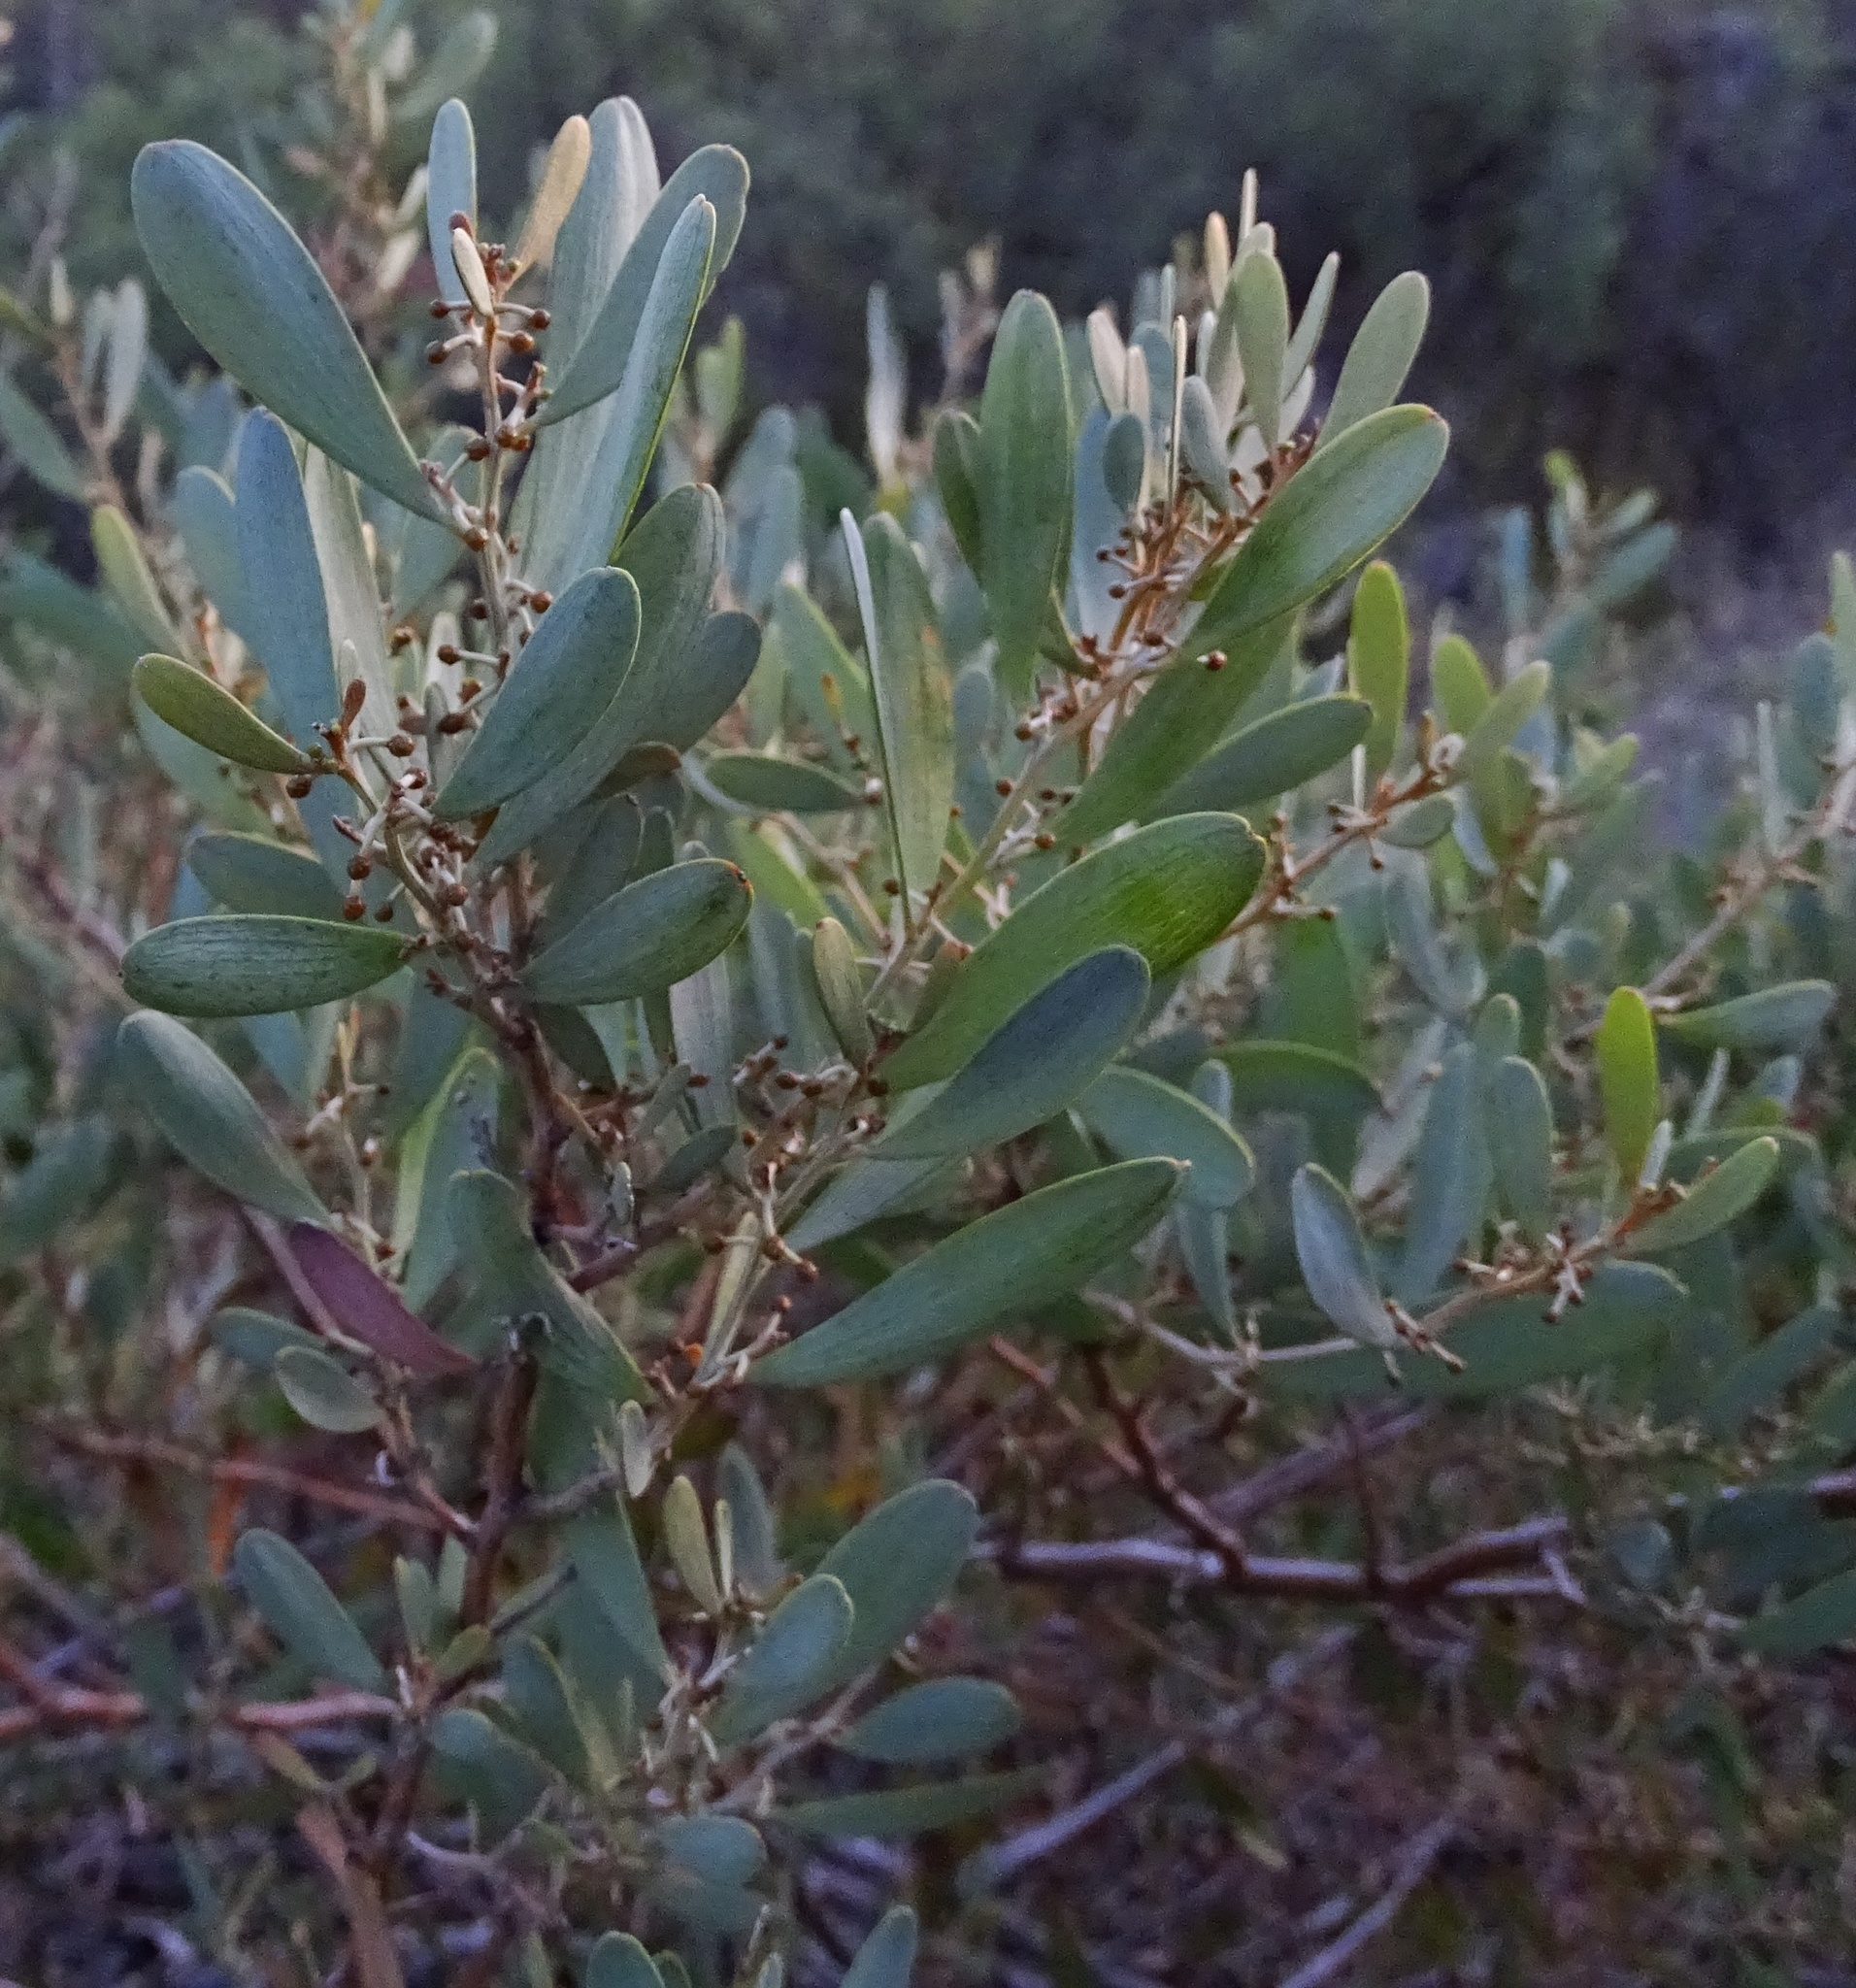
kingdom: Plantae
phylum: Tracheophyta
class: Magnoliopsida
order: Fabales
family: Fabaceae
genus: Acacia
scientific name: Acacia redolens
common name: Bank catclaw
